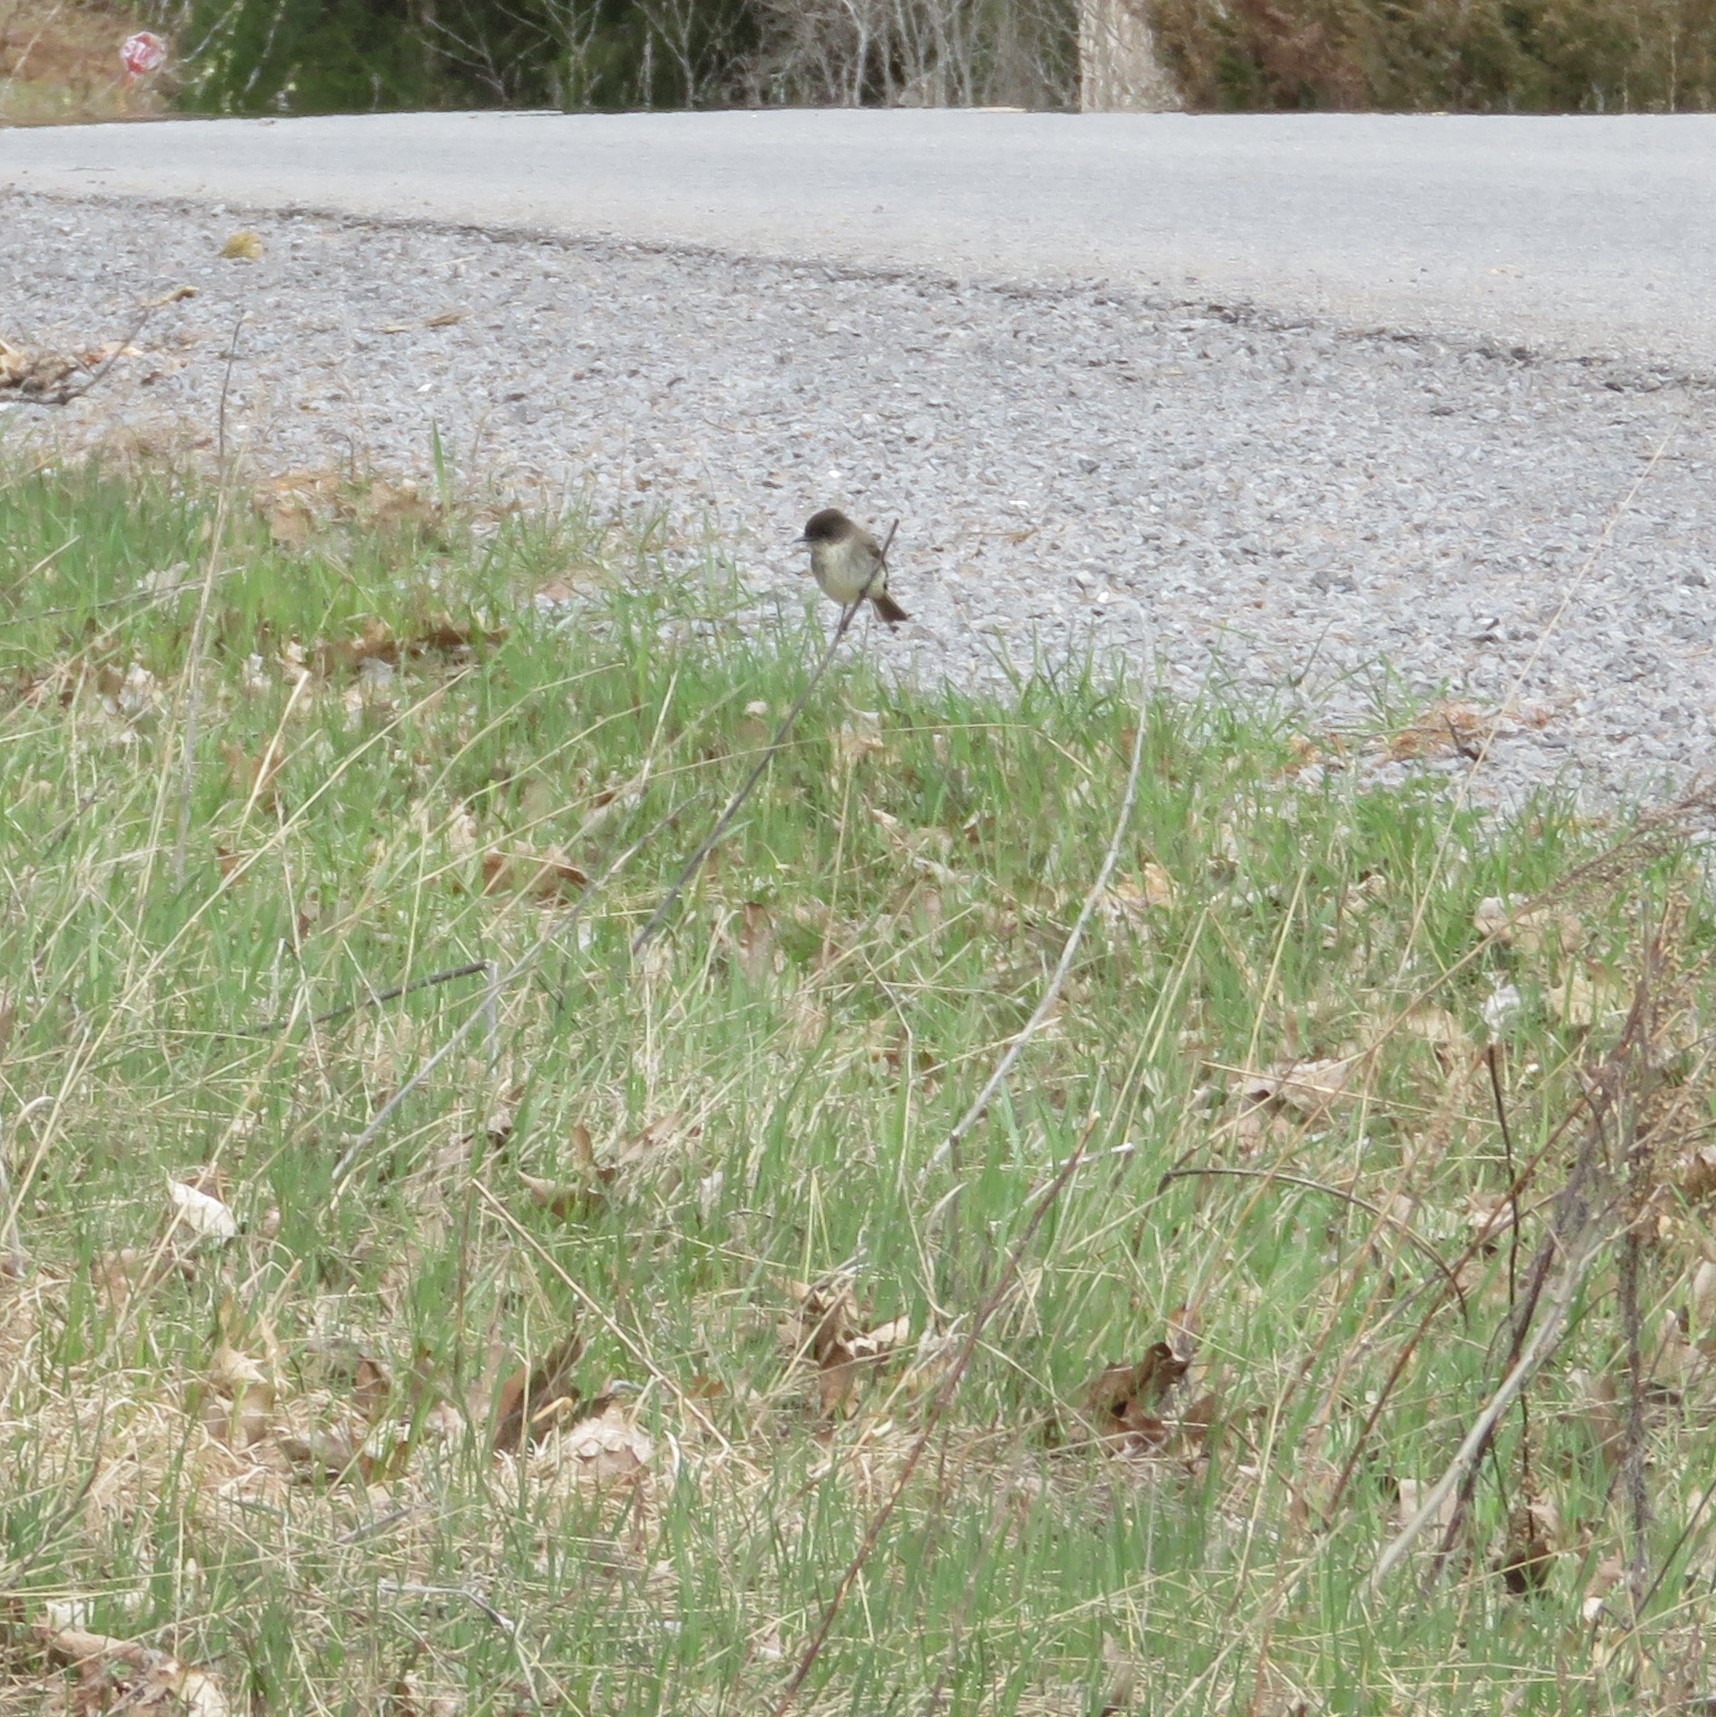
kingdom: Animalia
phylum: Chordata
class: Aves
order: Passeriformes
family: Tyrannidae
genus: Sayornis
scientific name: Sayornis phoebe
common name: Eastern phoebe
